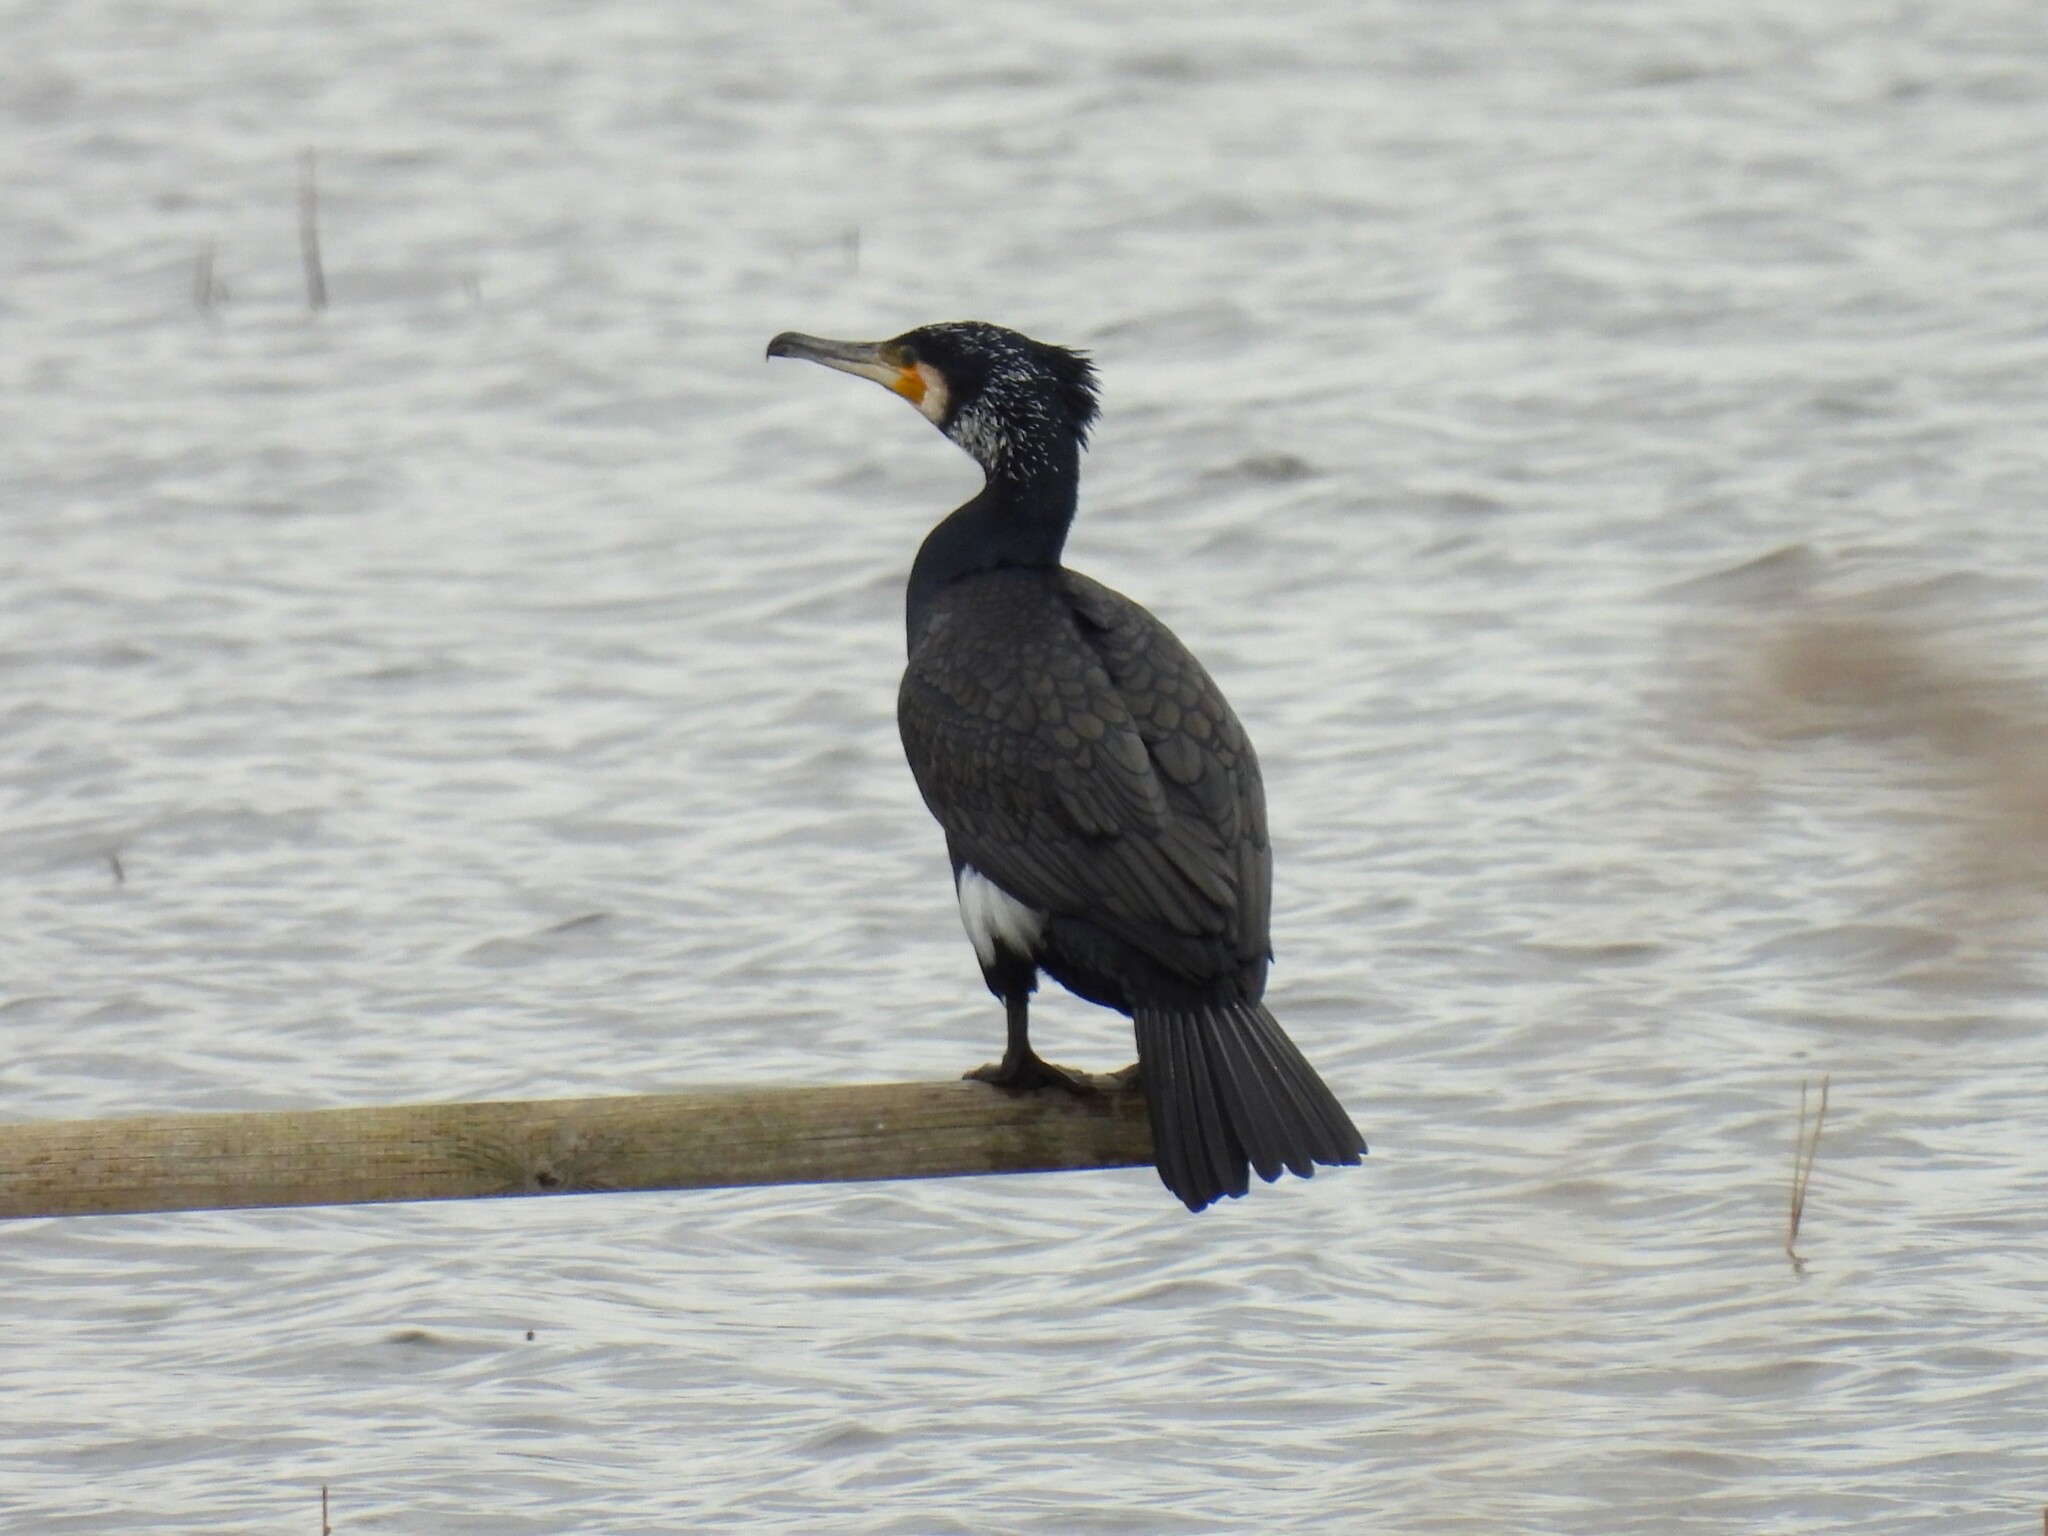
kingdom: Animalia
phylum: Chordata
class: Aves
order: Suliformes
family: Phalacrocoracidae
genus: Phalacrocorax
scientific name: Phalacrocorax carbo
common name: Great cormorant
